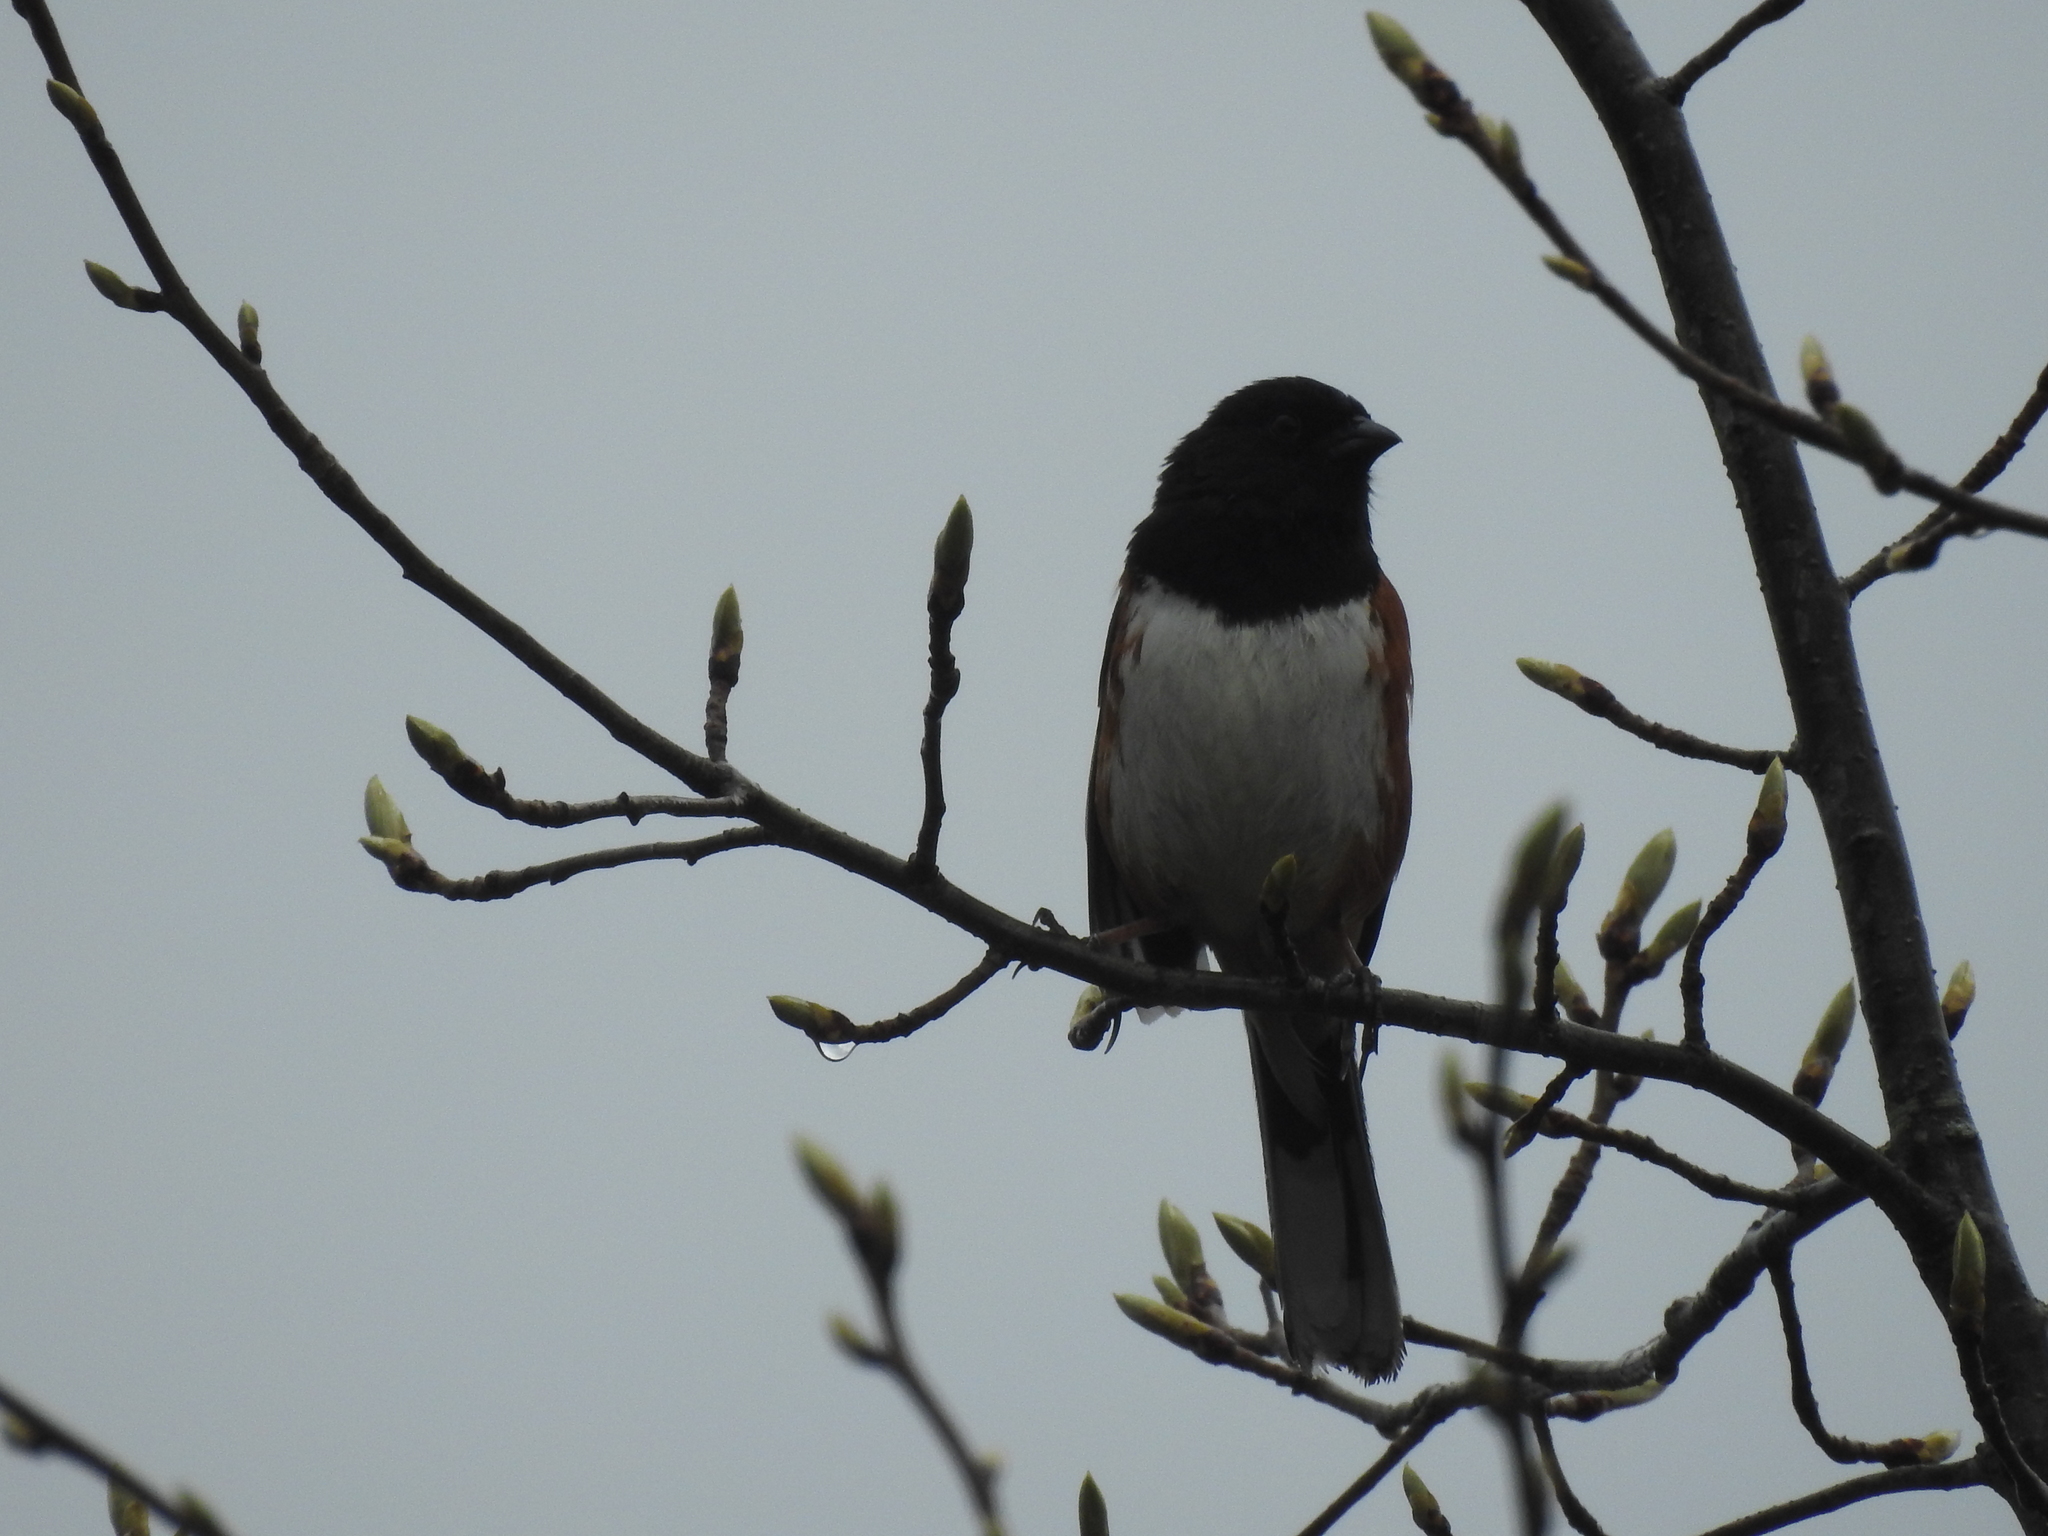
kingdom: Animalia
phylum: Chordata
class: Aves
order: Passeriformes
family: Passerellidae
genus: Pipilo
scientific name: Pipilo erythrophthalmus
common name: Eastern towhee
